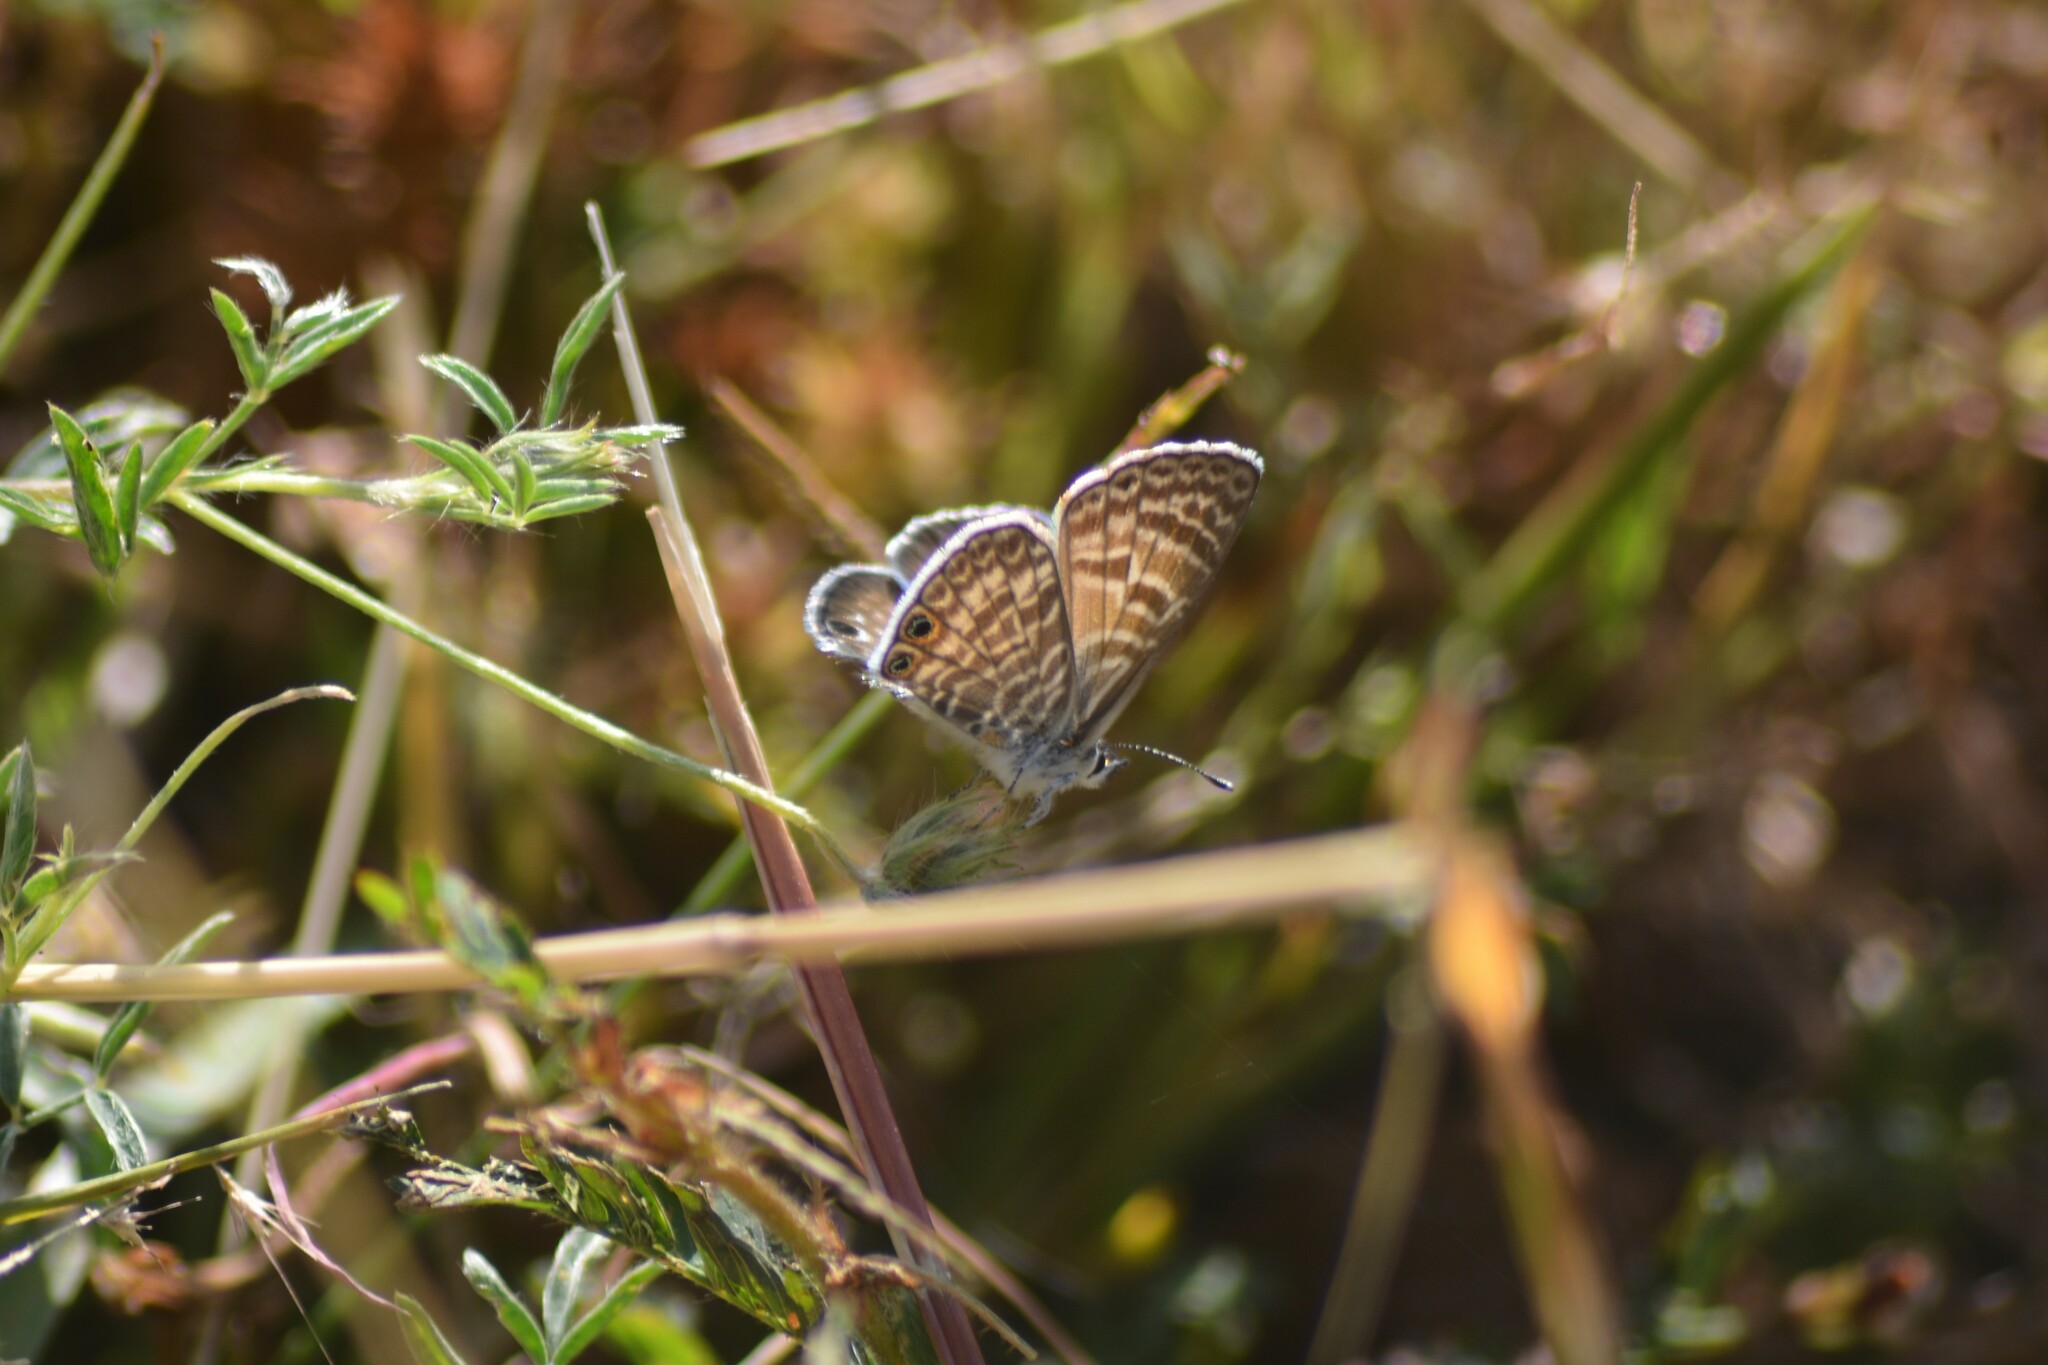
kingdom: Animalia
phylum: Arthropoda
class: Insecta
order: Lepidoptera
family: Lycaenidae
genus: Leptotes
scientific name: Leptotes marina
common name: Marine blue
